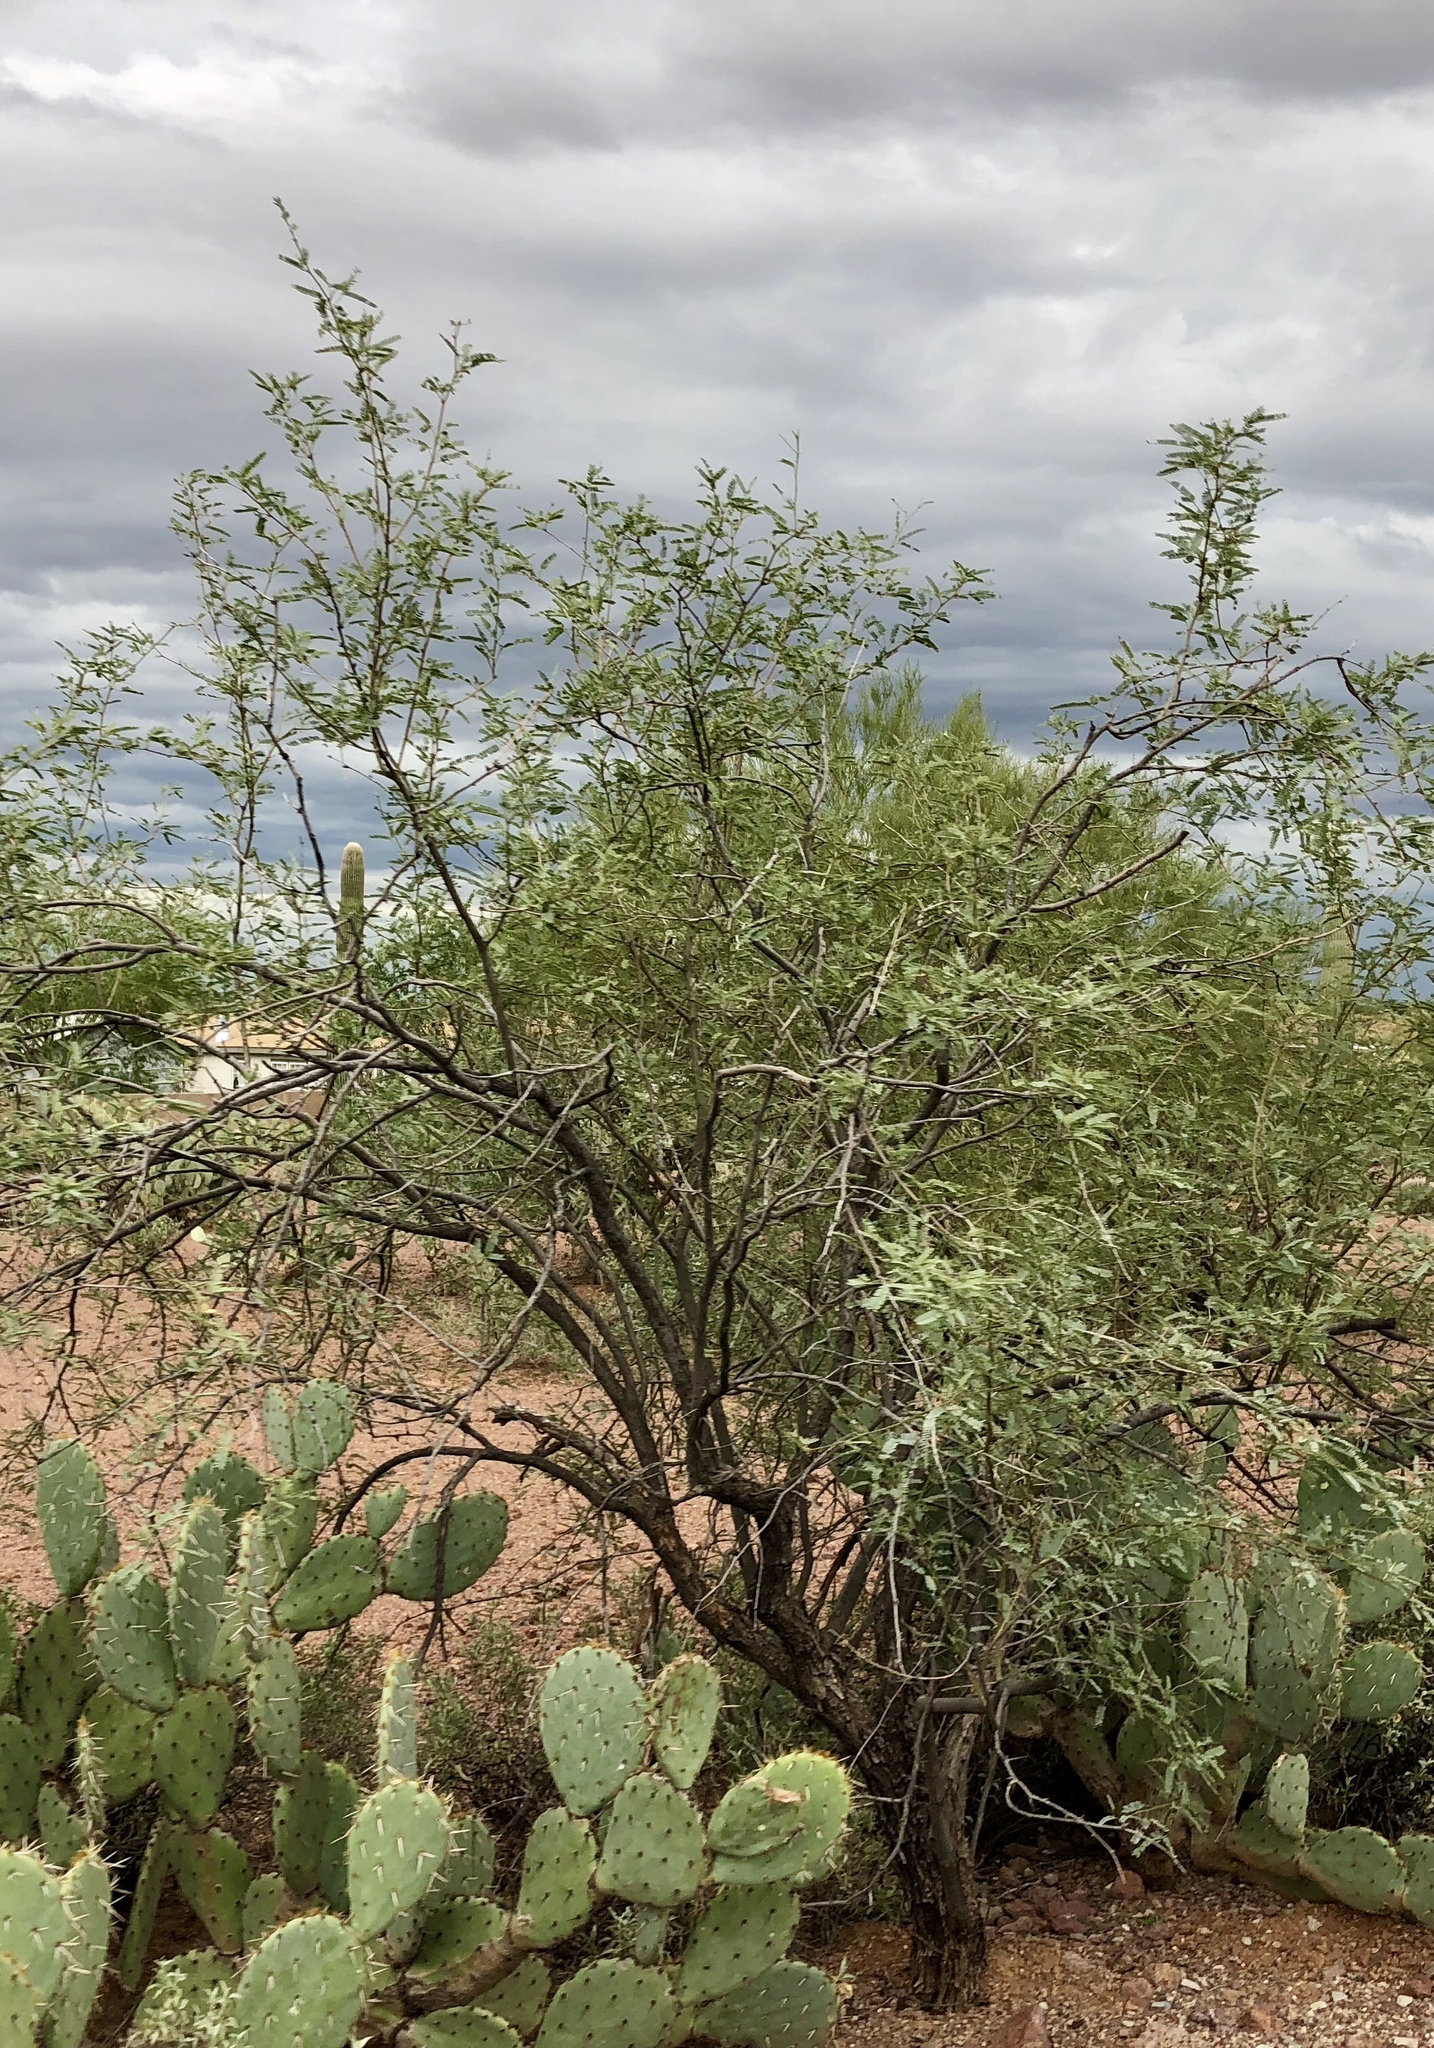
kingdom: Plantae
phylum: Tracheophyta
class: Magnoliopsida
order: Fabales
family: Fabaceae
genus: Prosopis
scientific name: Prosopis velutina
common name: Velvet mesquite
